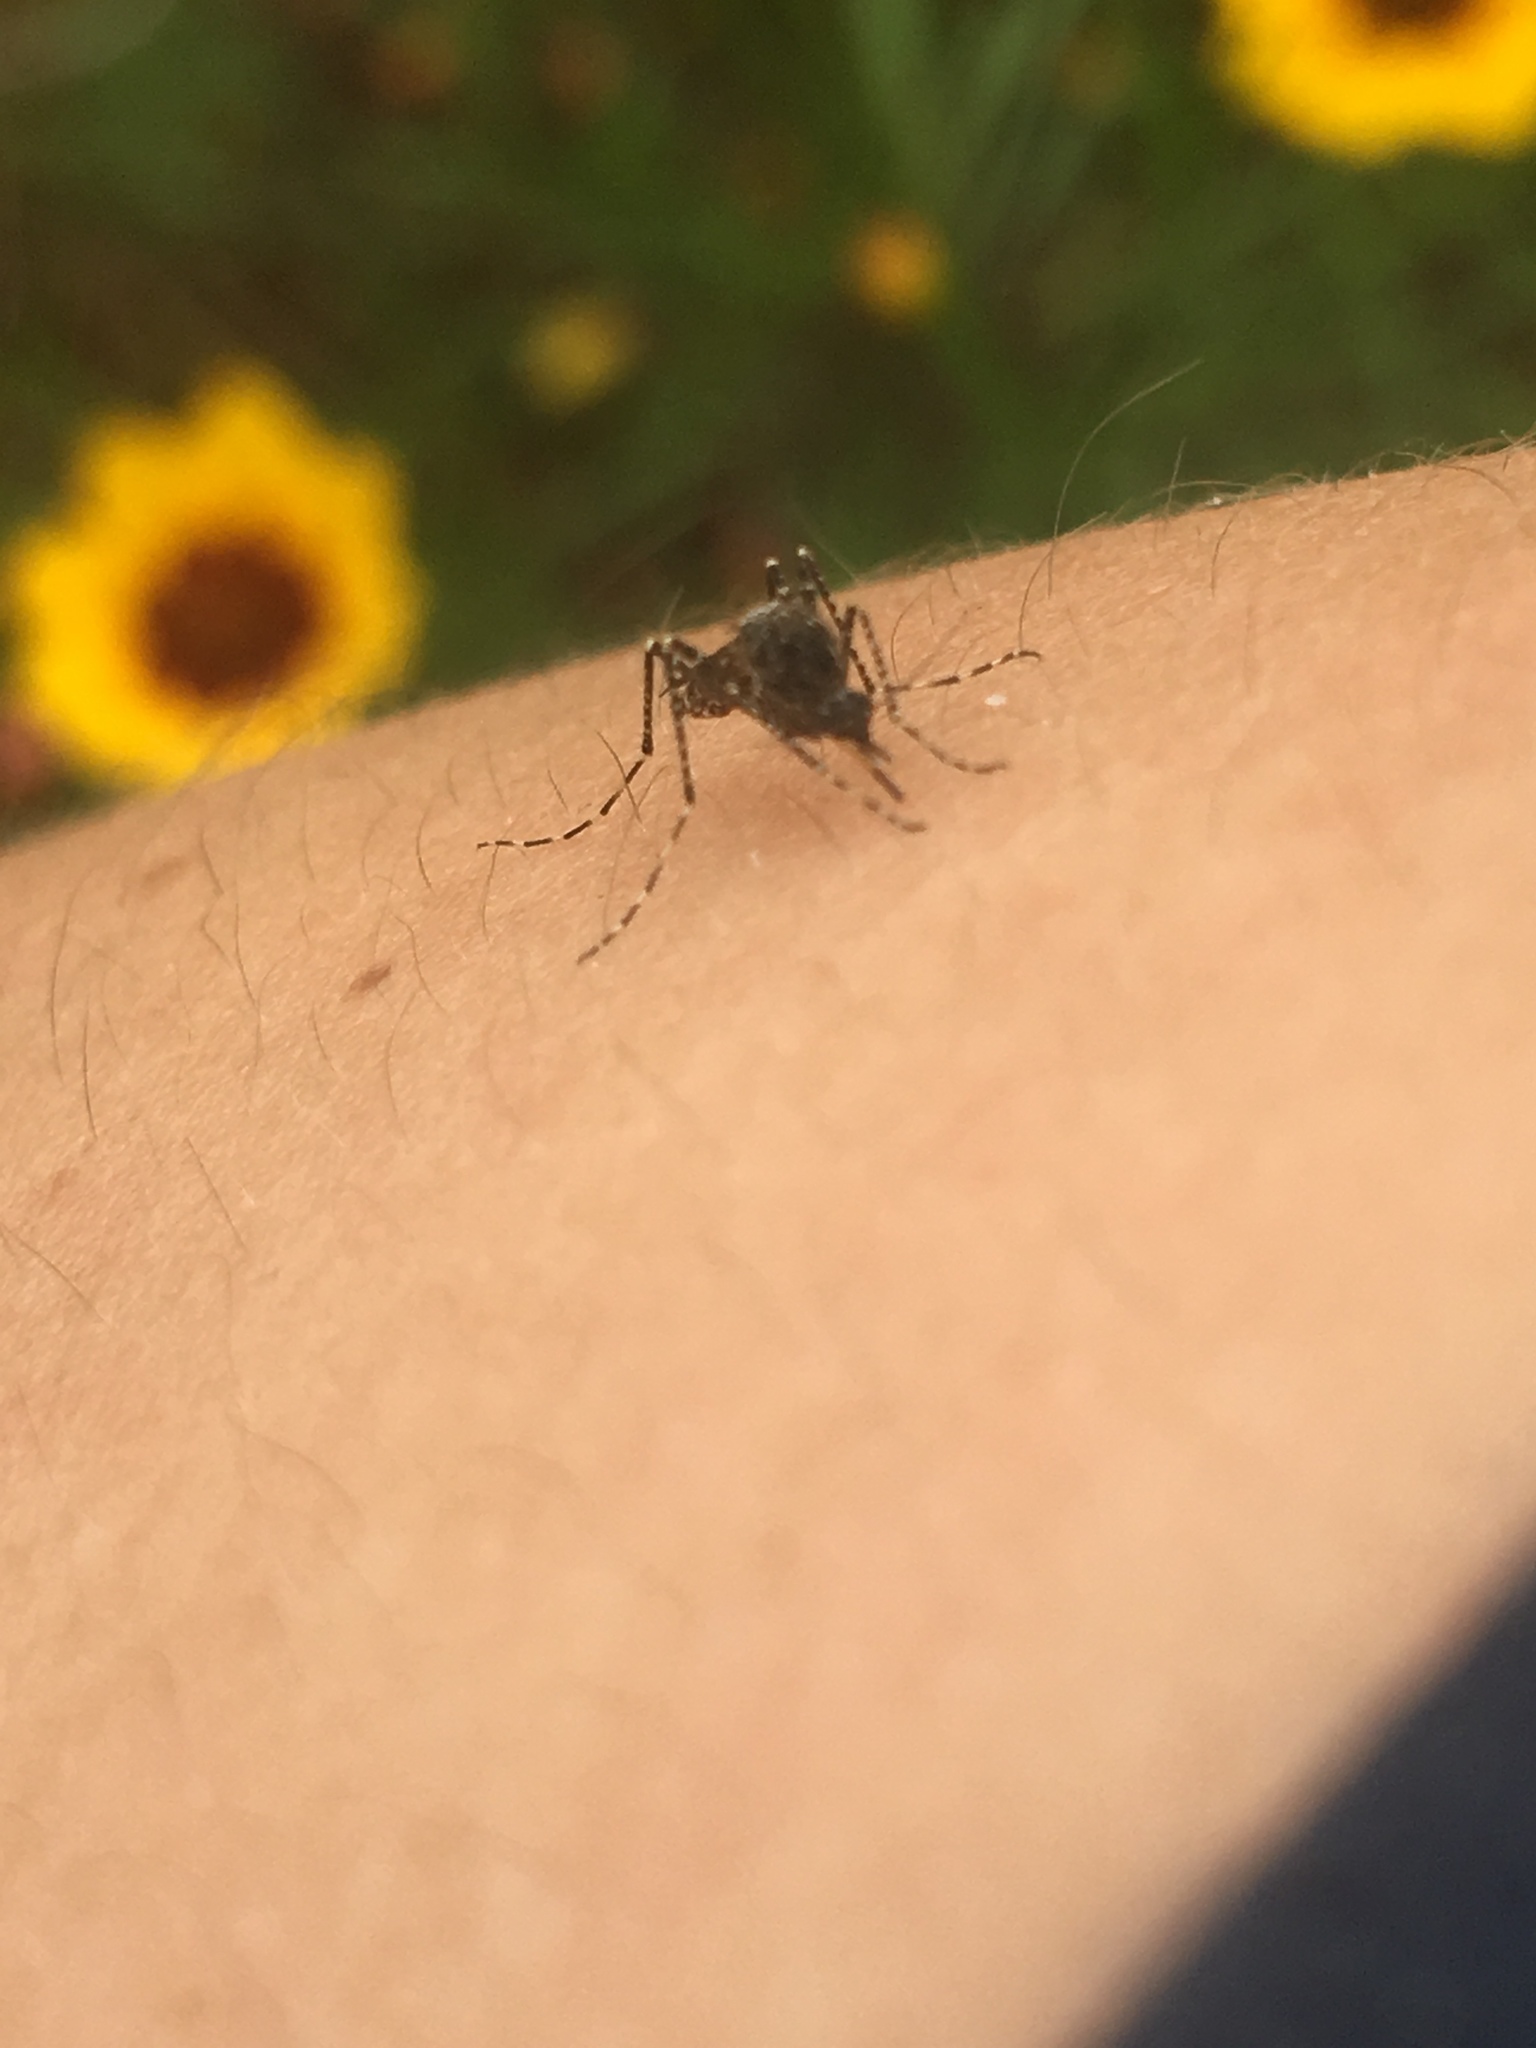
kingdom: Animalia
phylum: Arthropoda
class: Insecta
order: Diptera
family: Culicidae
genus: Psorophora
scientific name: Psorophora columbiae
